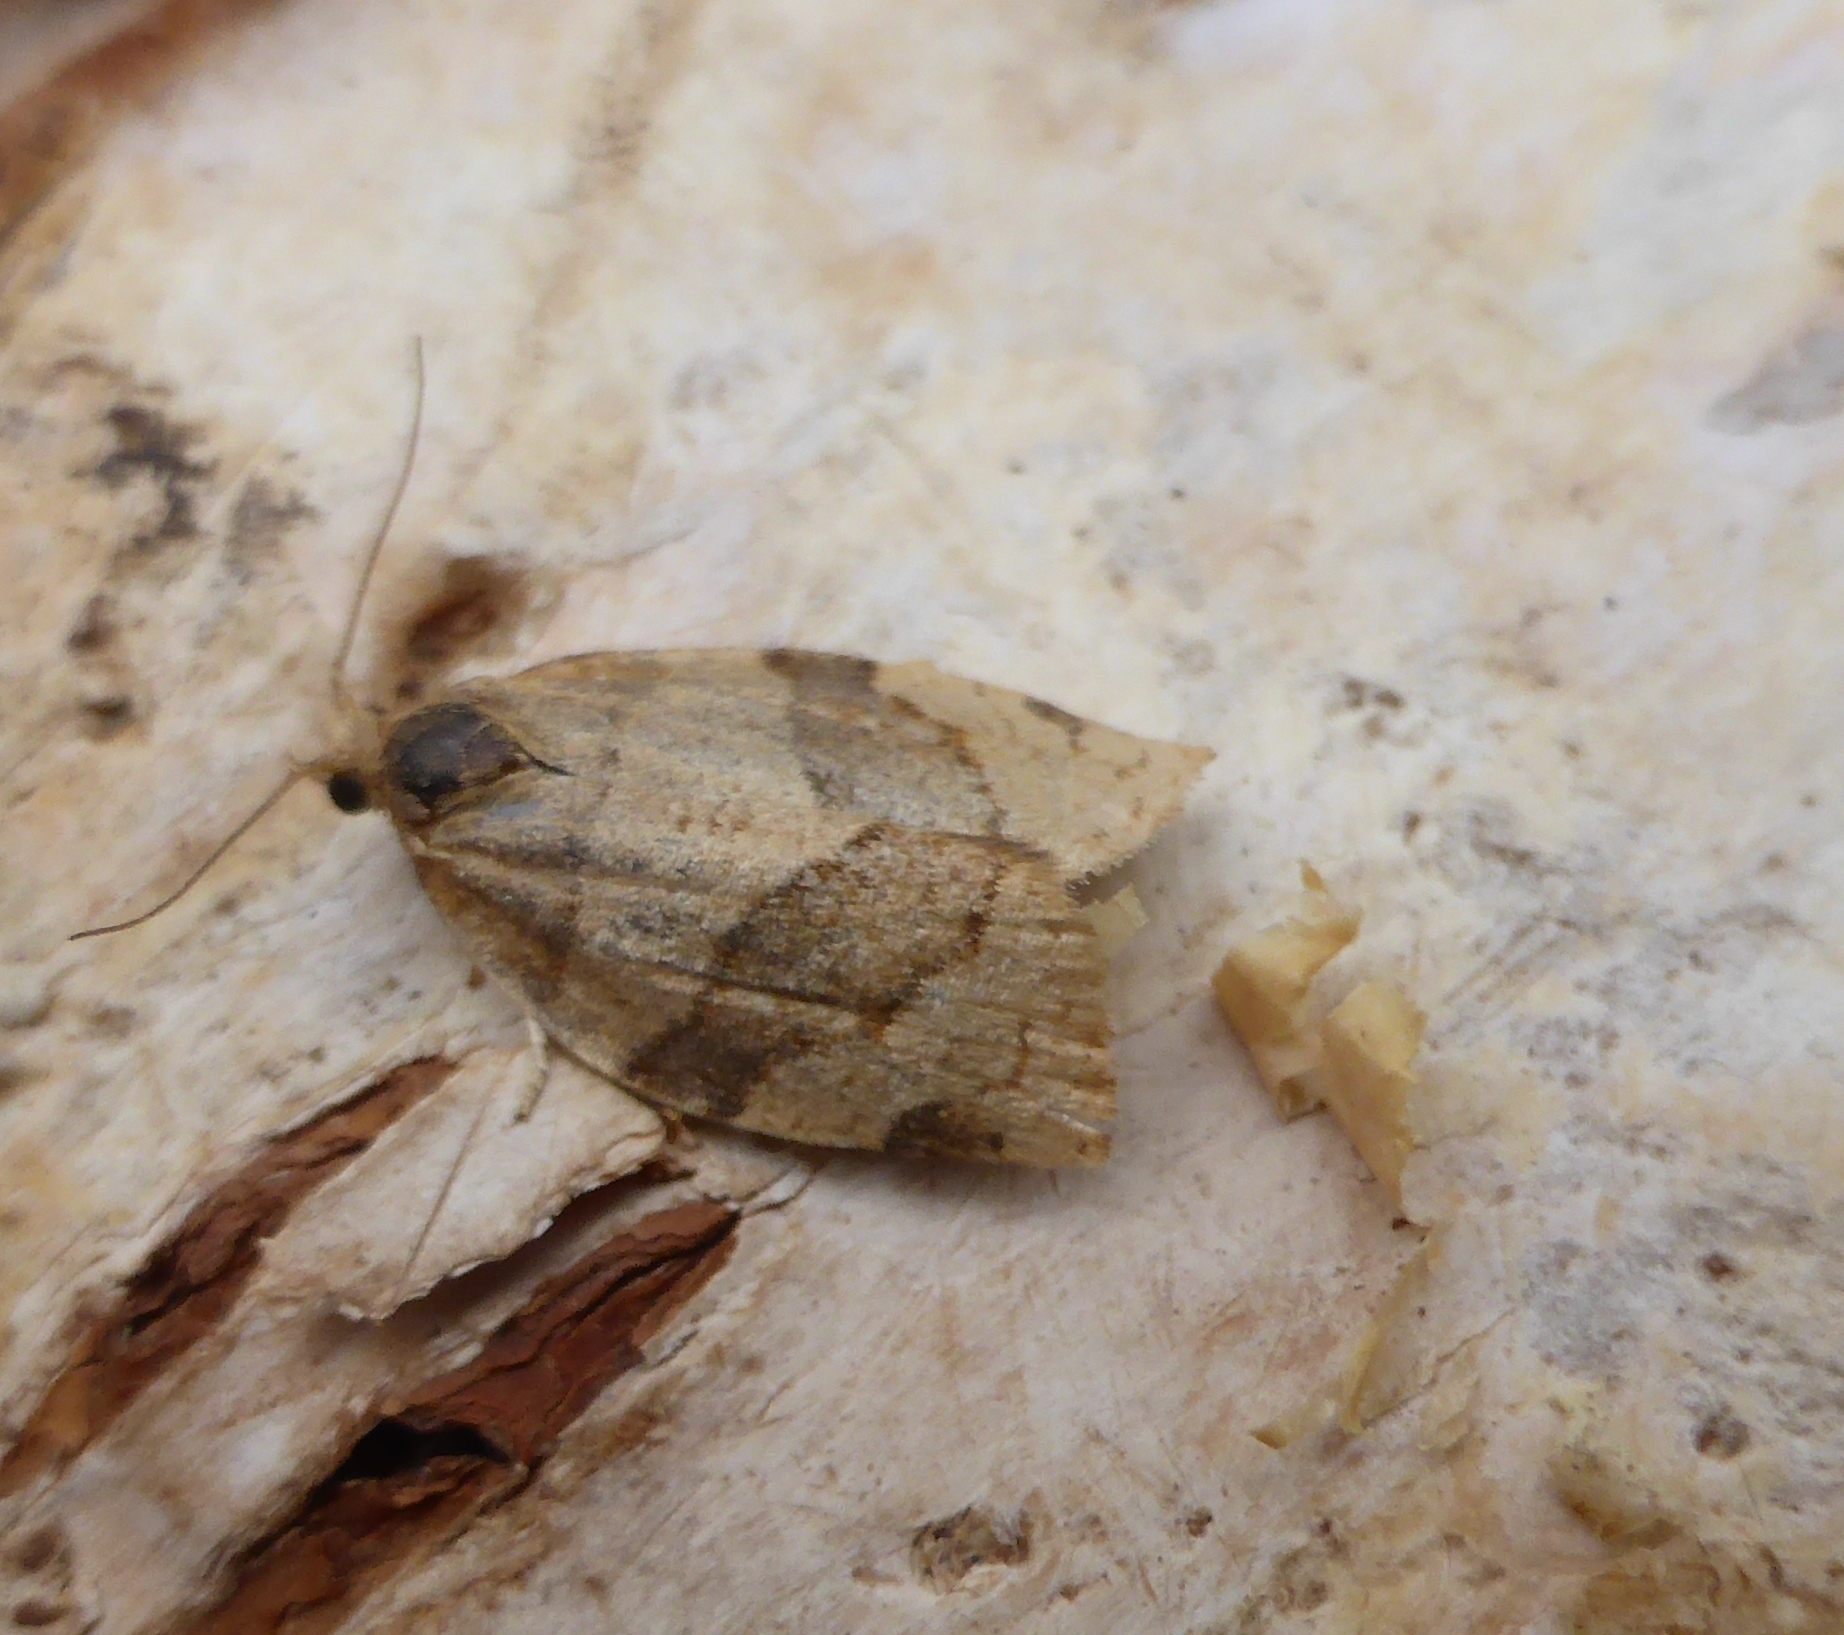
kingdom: Animalia
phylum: Arthropoda
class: Insecta
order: Lepidoptera
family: Tortricidae
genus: Pandemis
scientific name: Pandemis cerasana
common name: Barred fruit-tree tortrix
